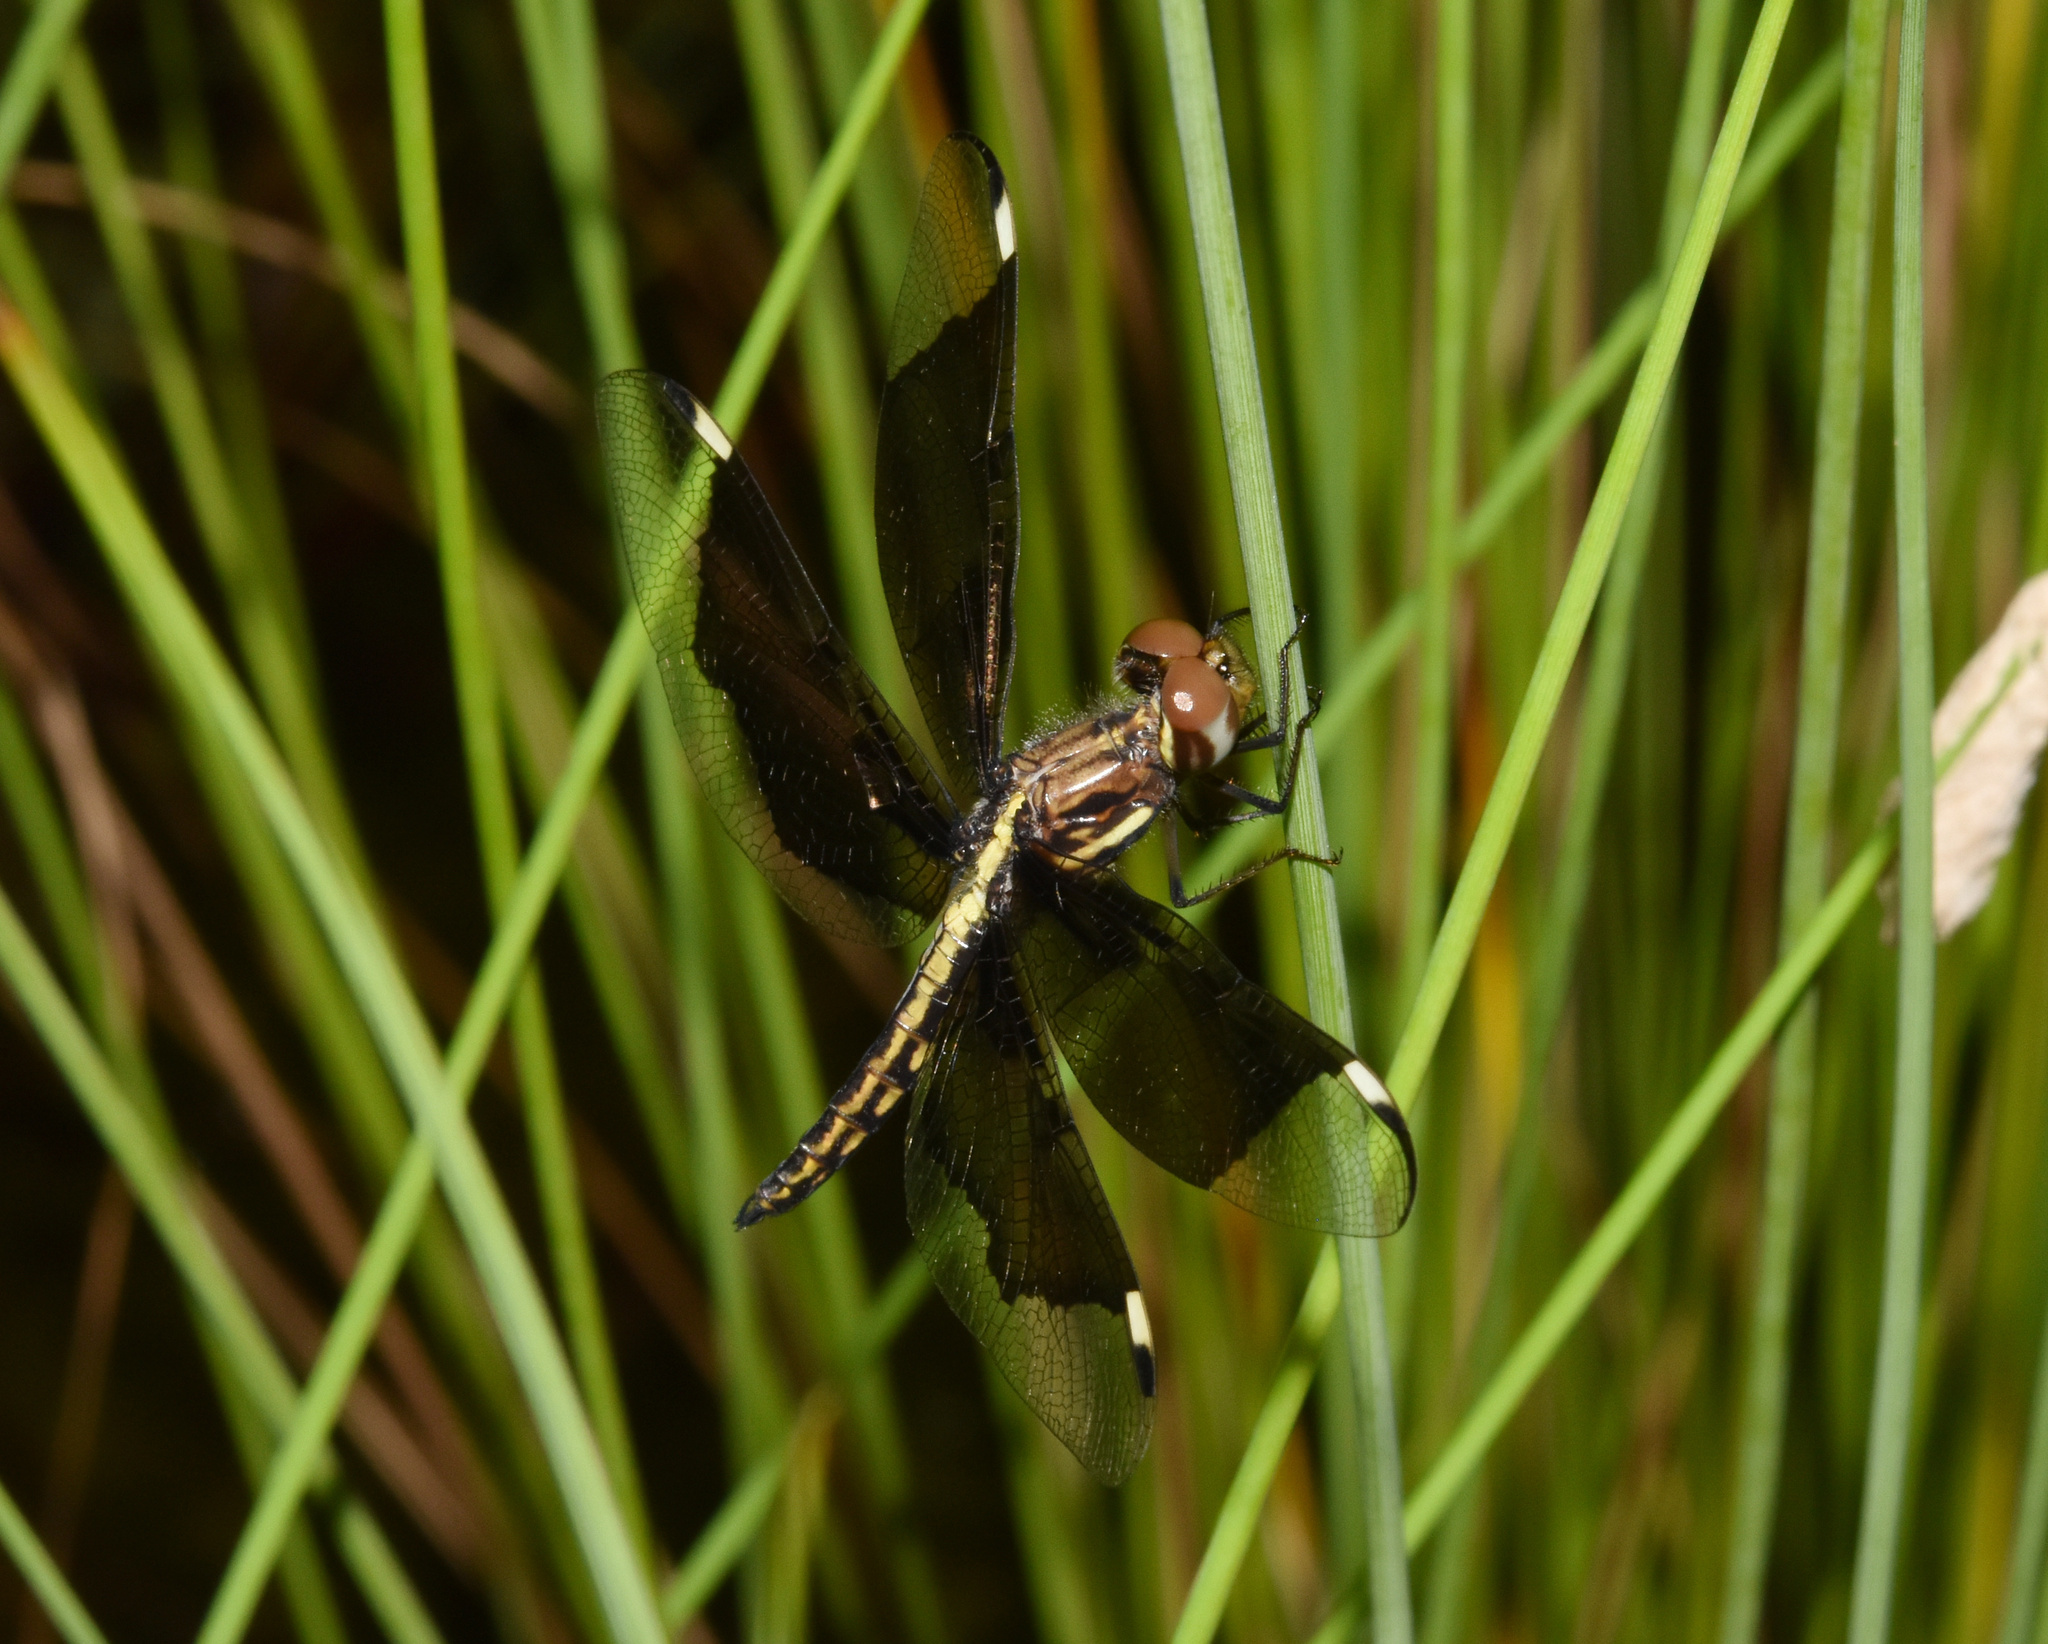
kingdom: Animalia
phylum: Arthropoda
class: Insecta
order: Odonata
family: Libellulidae
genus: Palpopleura
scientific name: Palpopleura lucia
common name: Lucia widow
